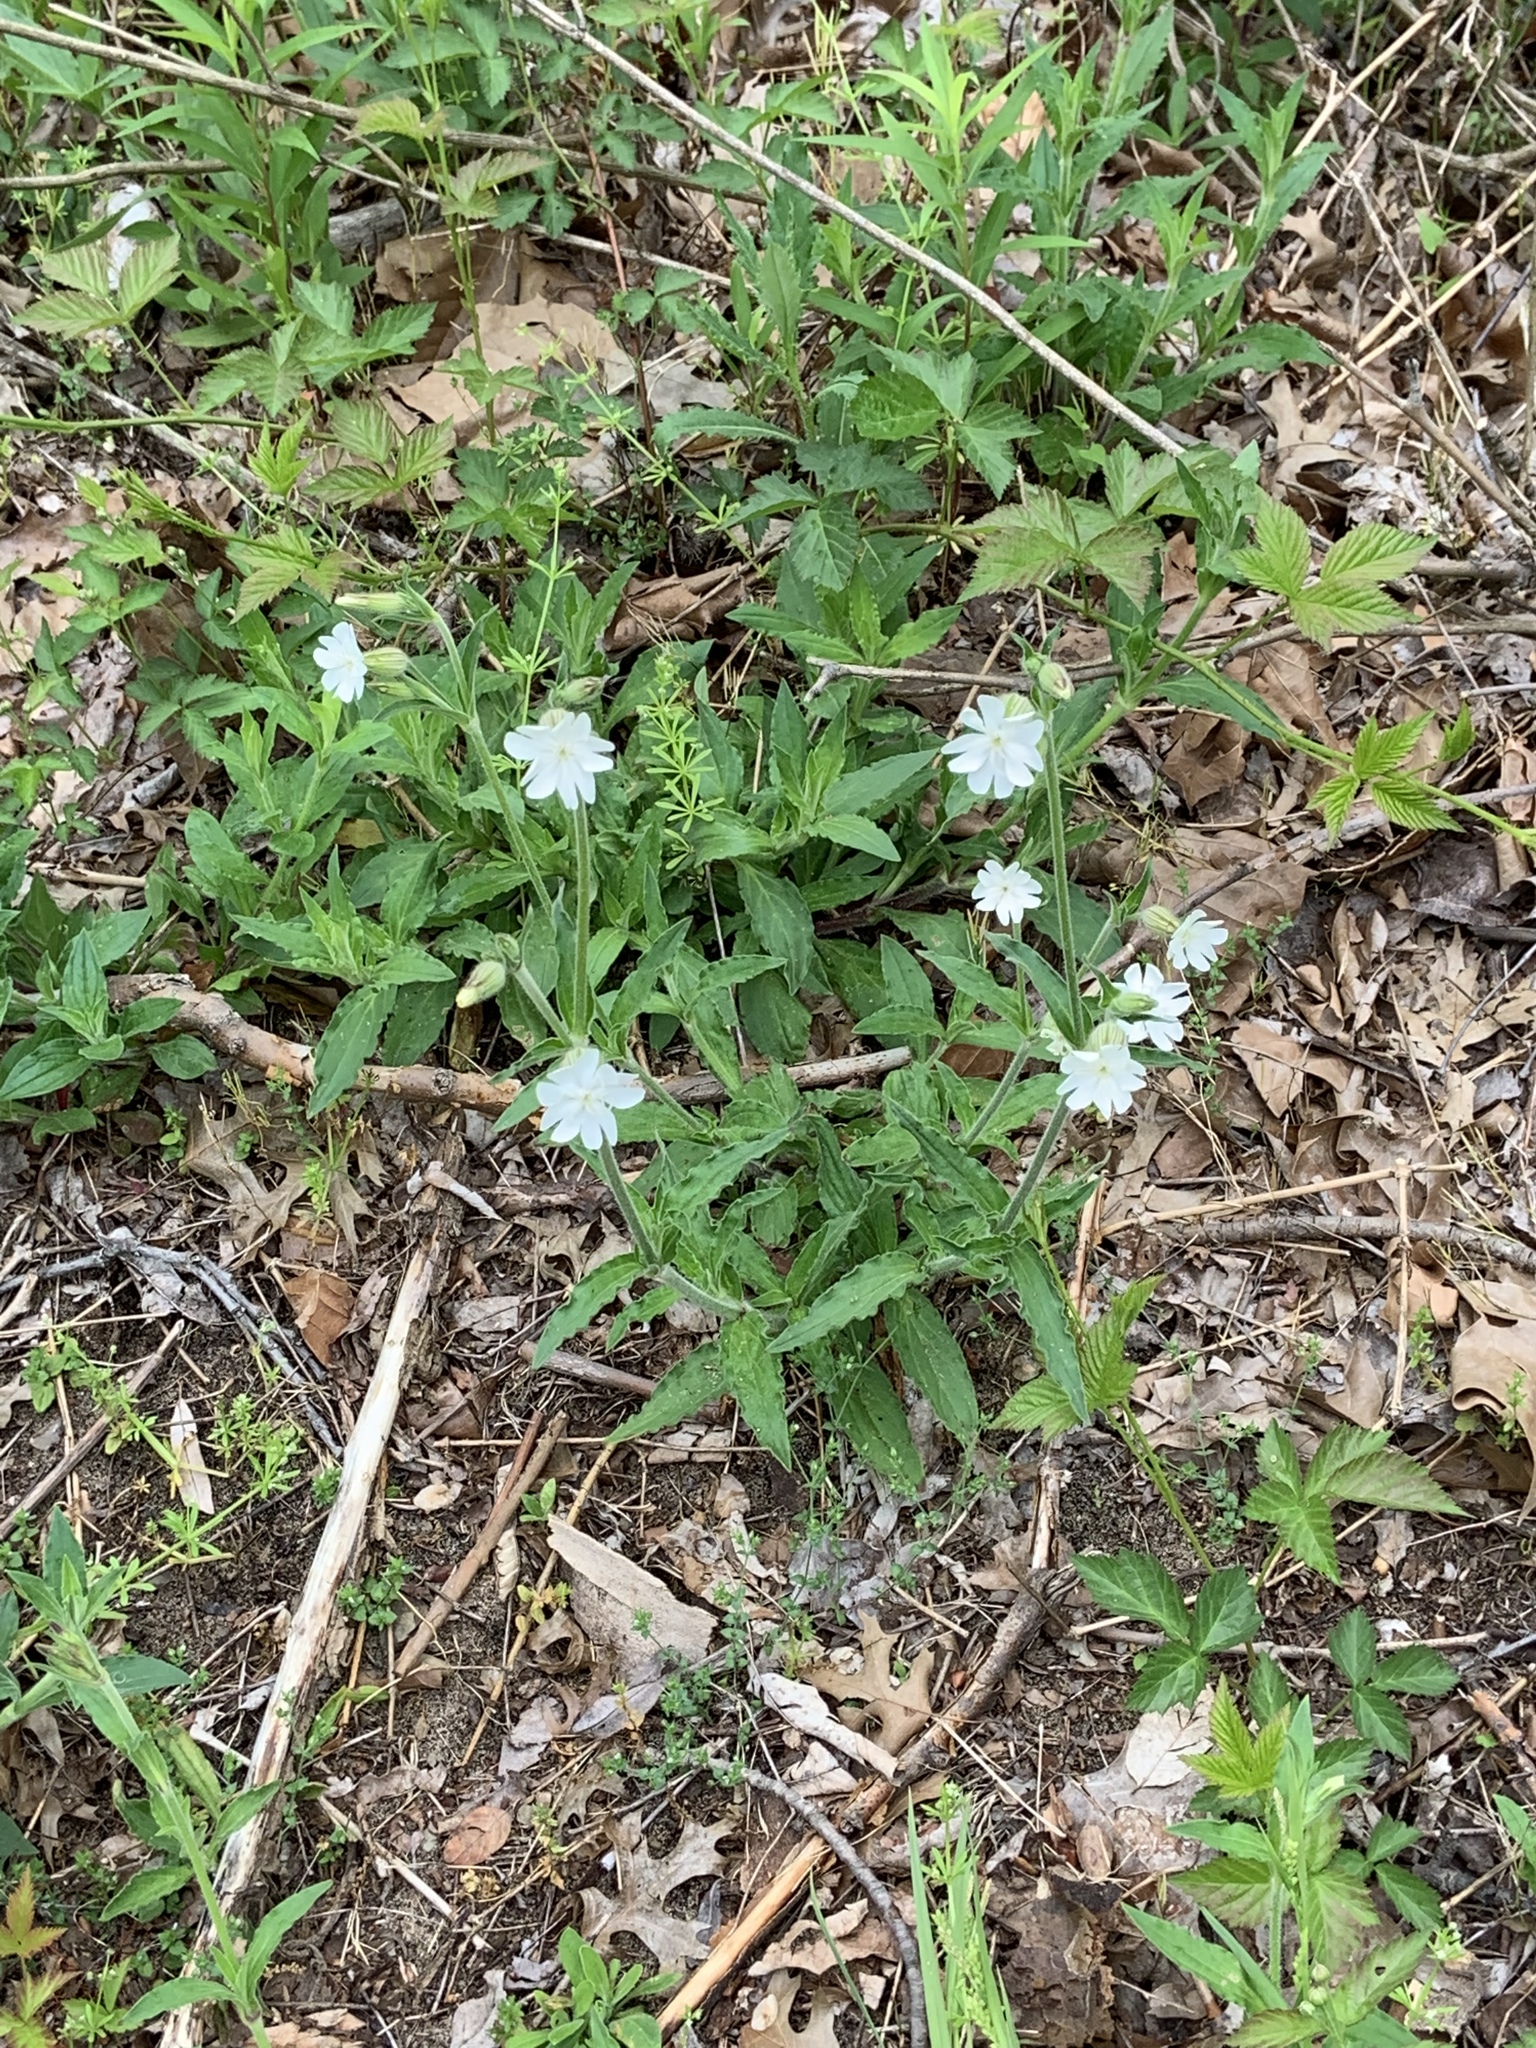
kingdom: Plantae
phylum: Tracheophyta
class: Magnoliopsida
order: Caryophyllales
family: Caryophyllaceae
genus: Silene
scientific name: Silene latifolia
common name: White campion
